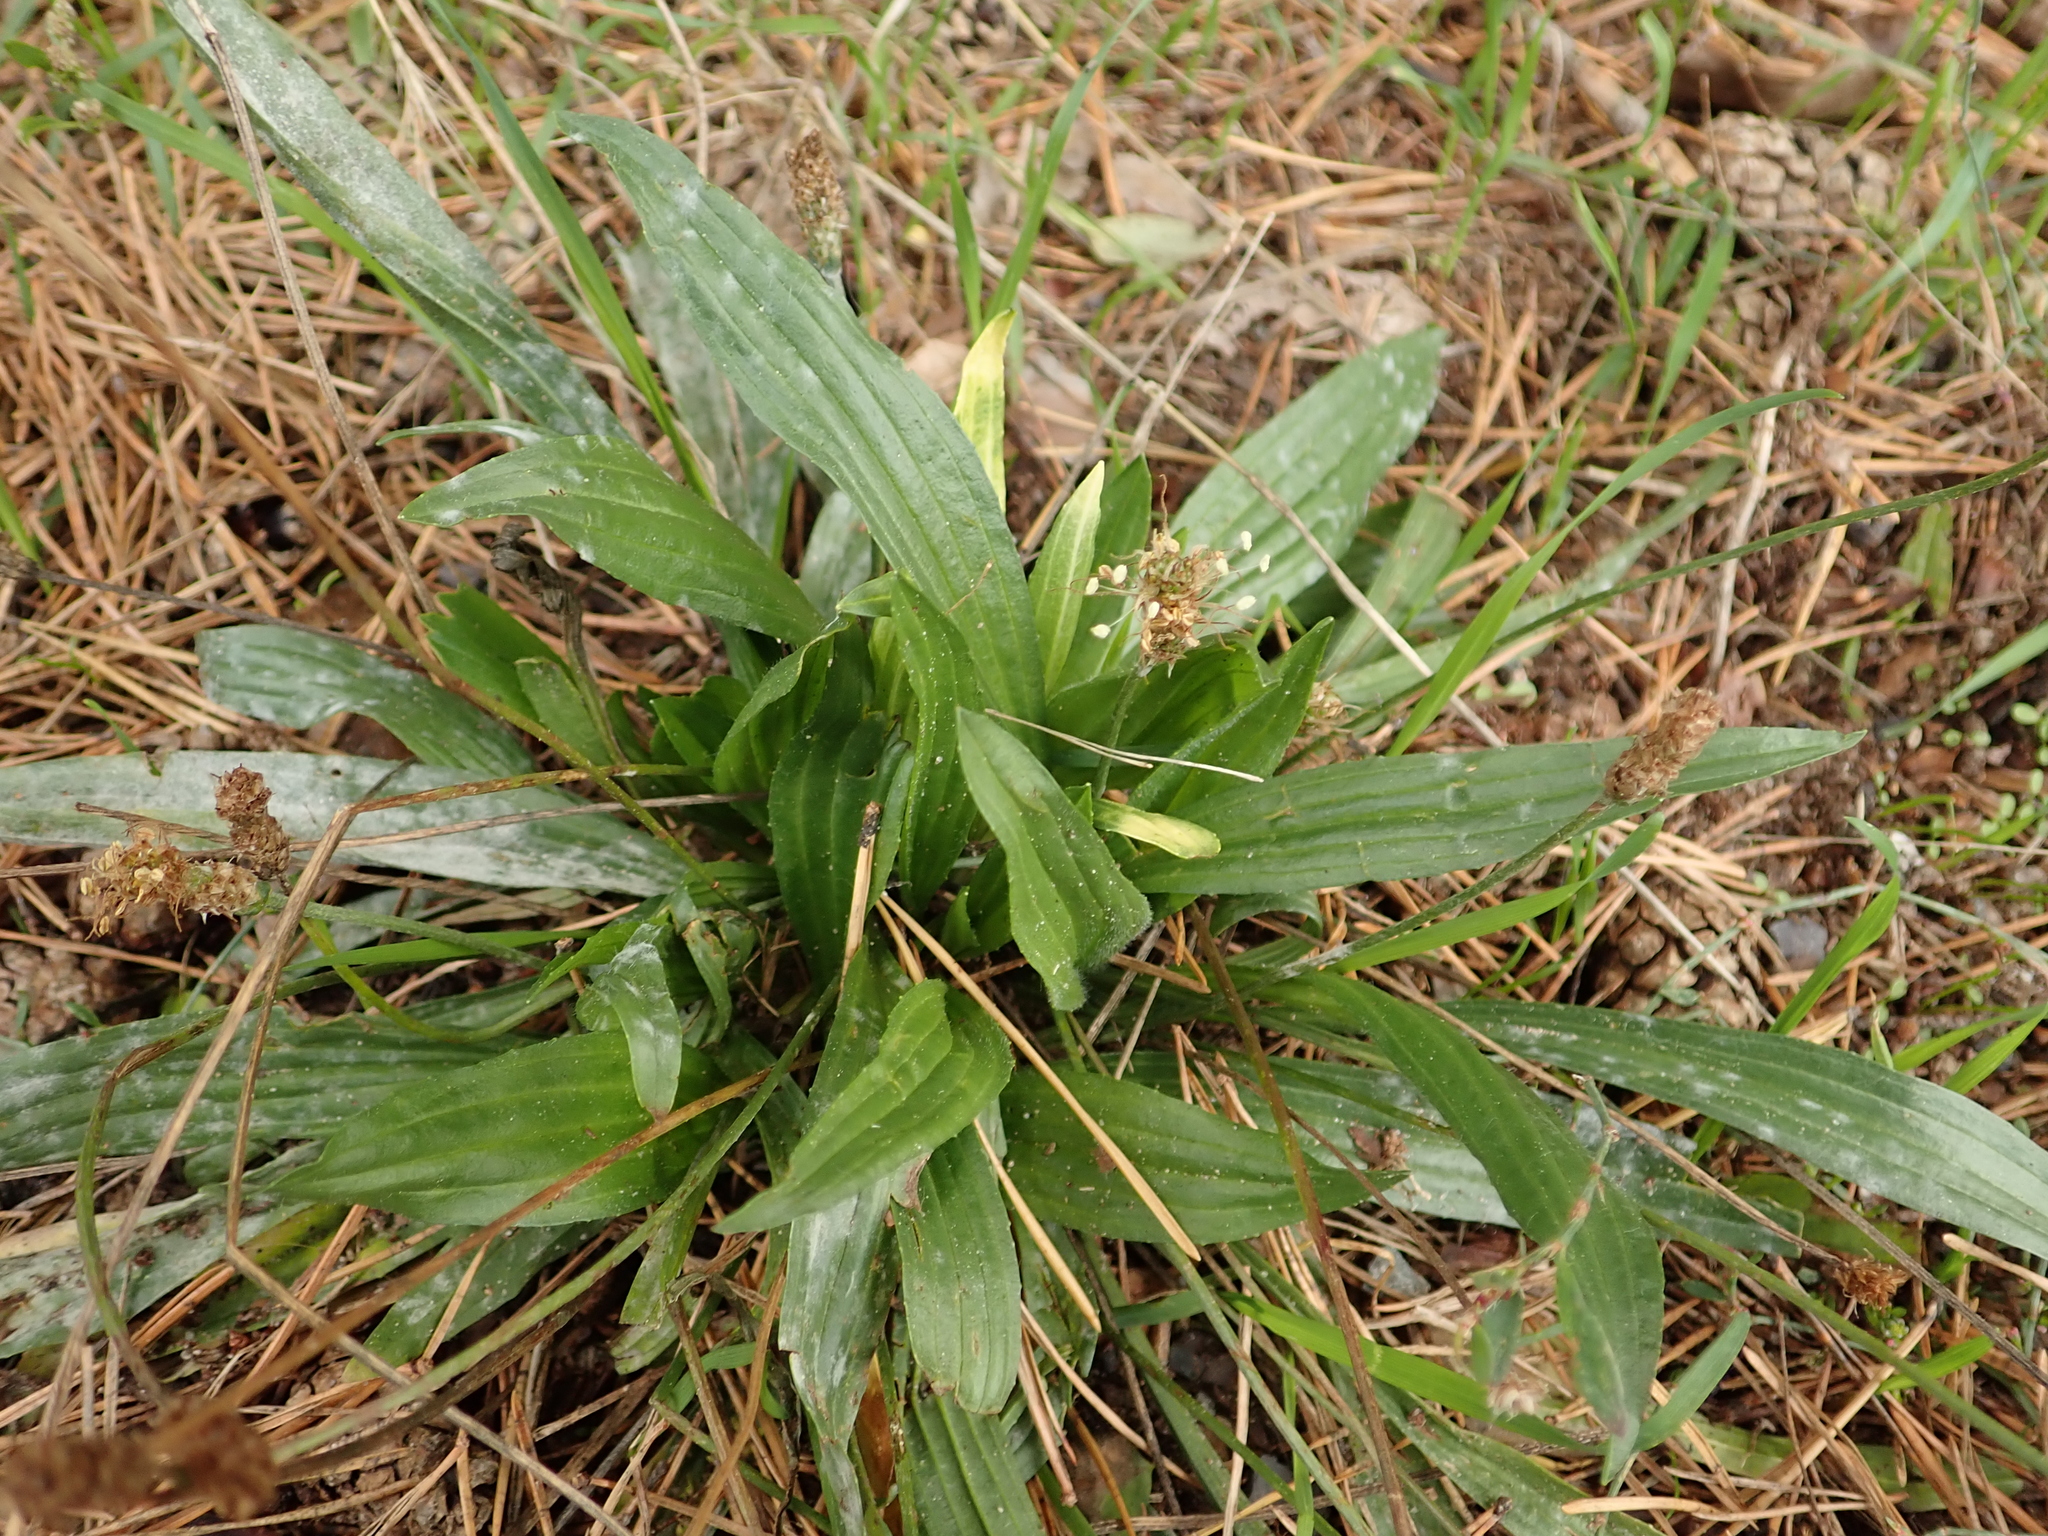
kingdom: Plantae
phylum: Tracheophyta
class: Magnoliopsida
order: Lamiales
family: Plantaginaceae
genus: Plantago
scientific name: Plantago lanceolata
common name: Ribwort plantain
